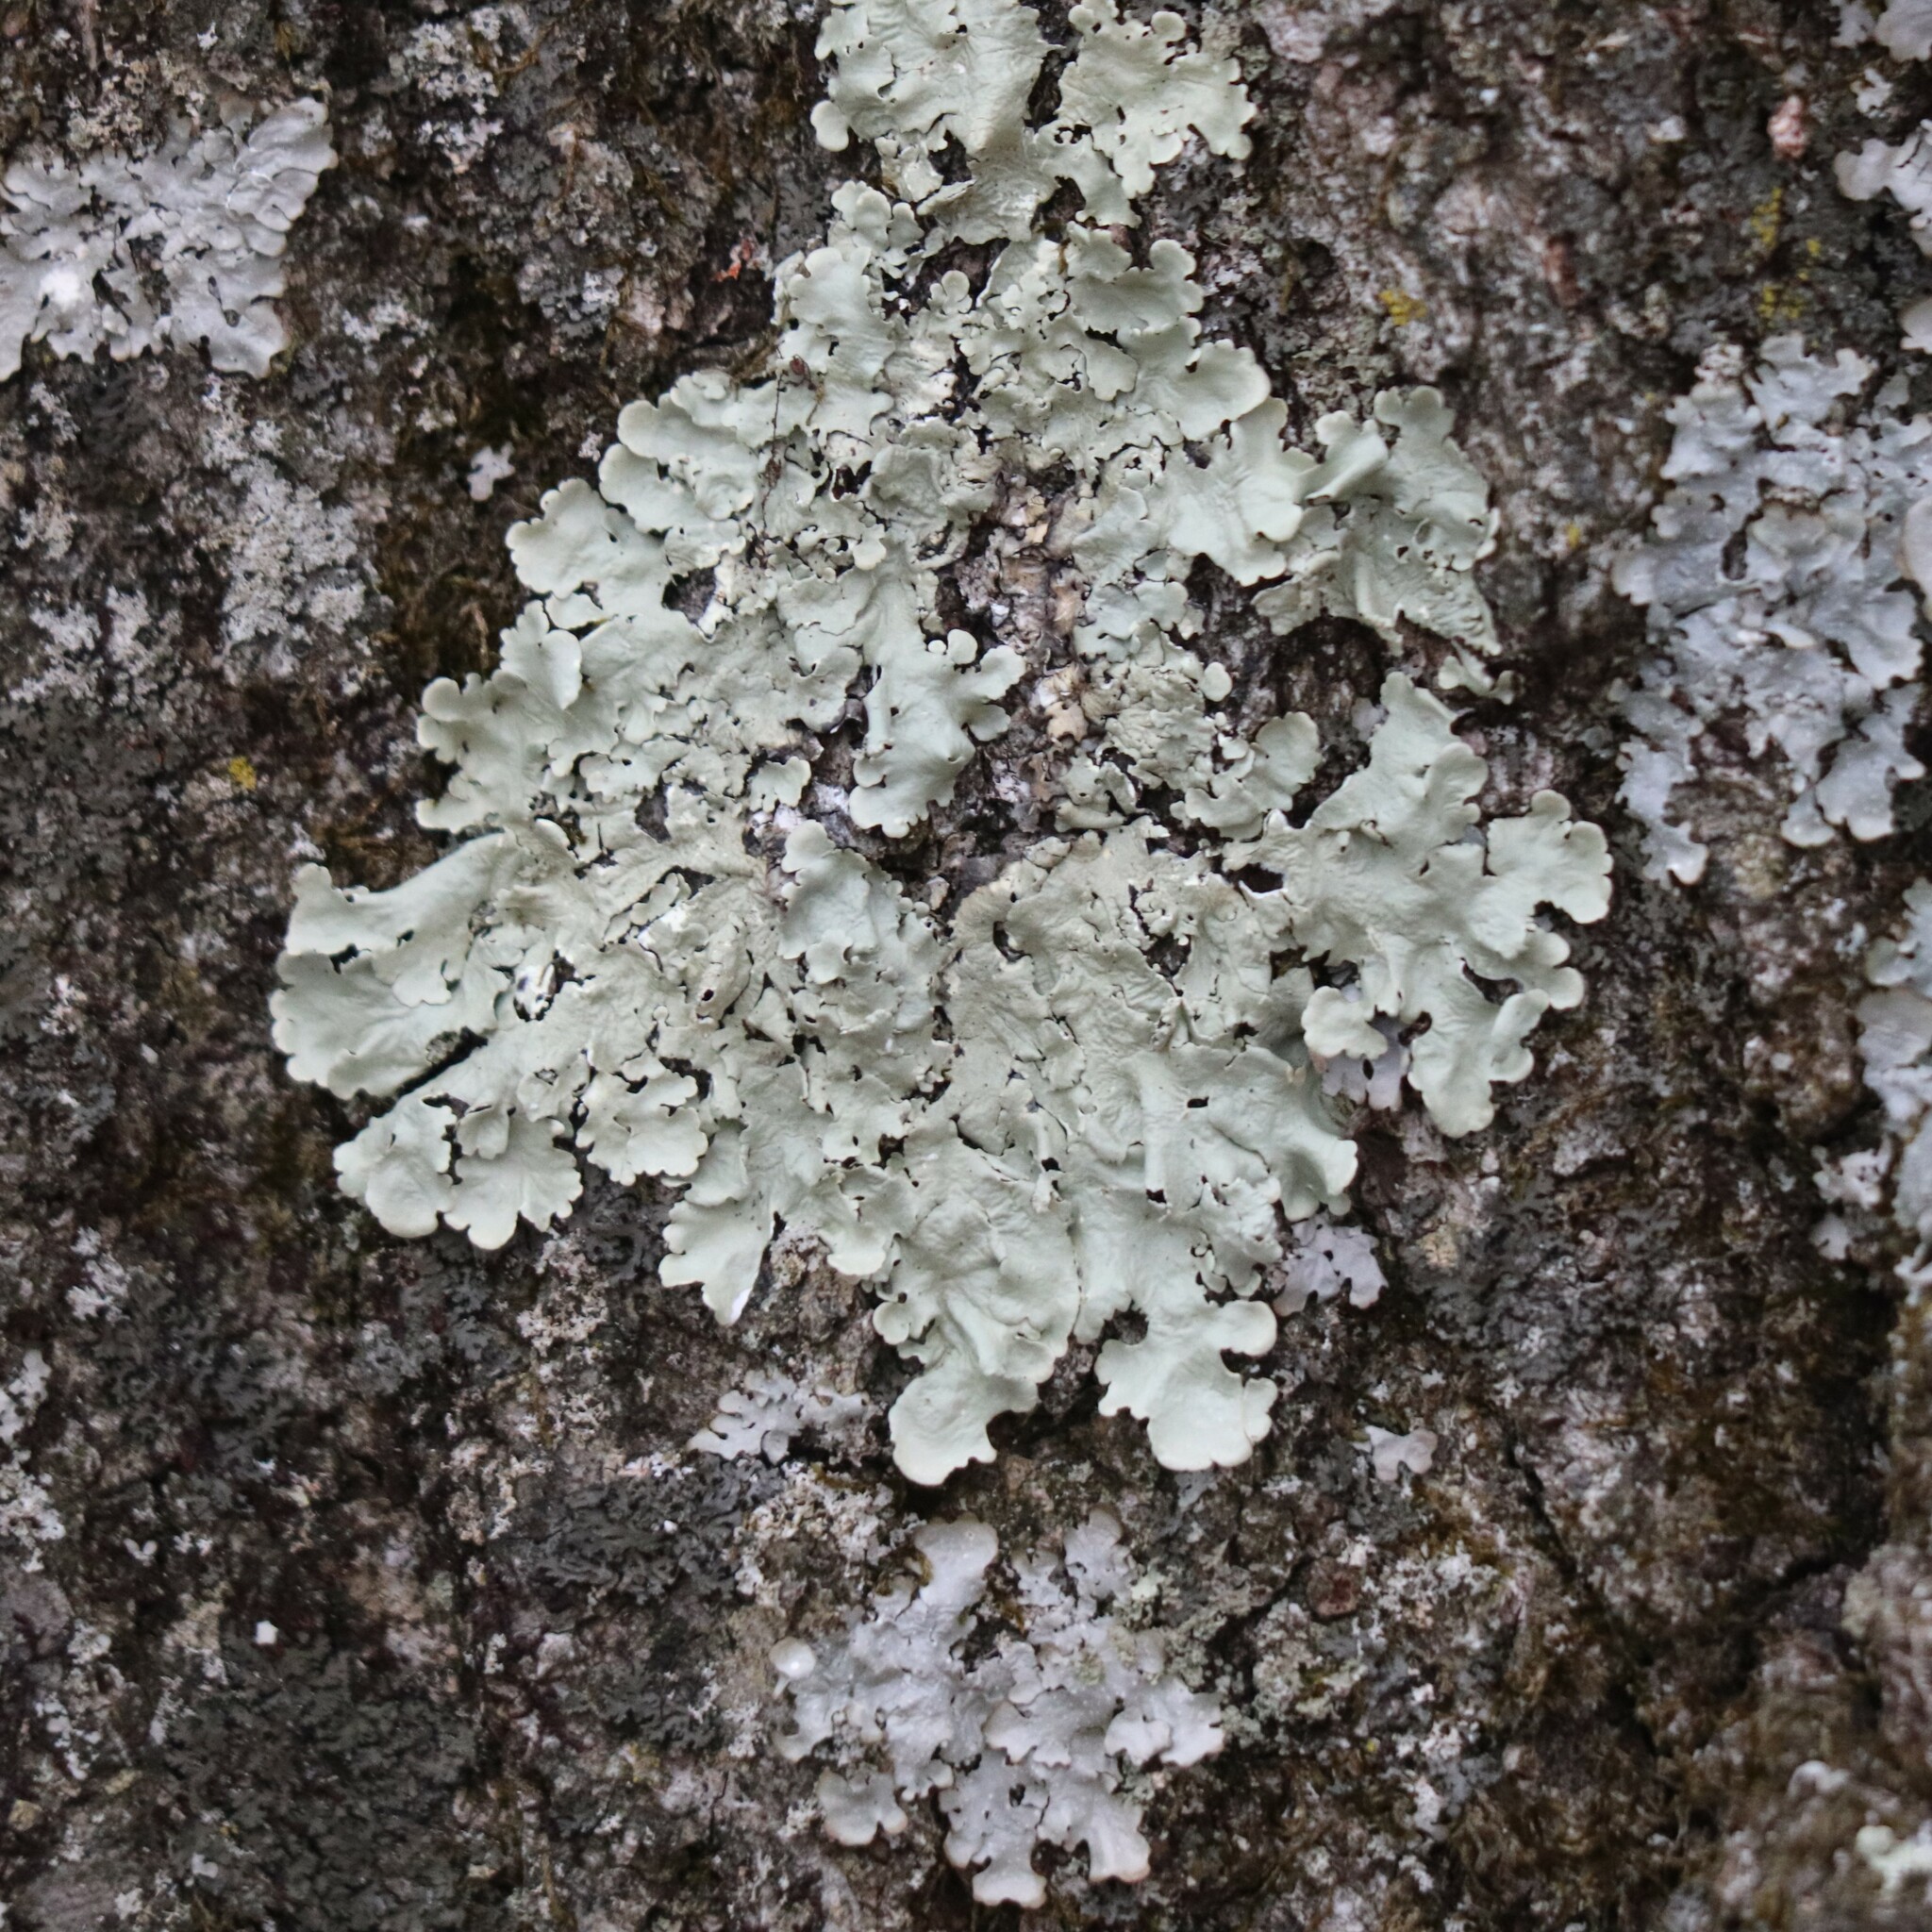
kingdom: Fungi
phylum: Ascomycota
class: Lecanoromycetes
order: Lecanorales
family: Parmeliaceae
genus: Flavoparmelia
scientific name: Flavoparmelia caperata
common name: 40-mile per hour lichen
